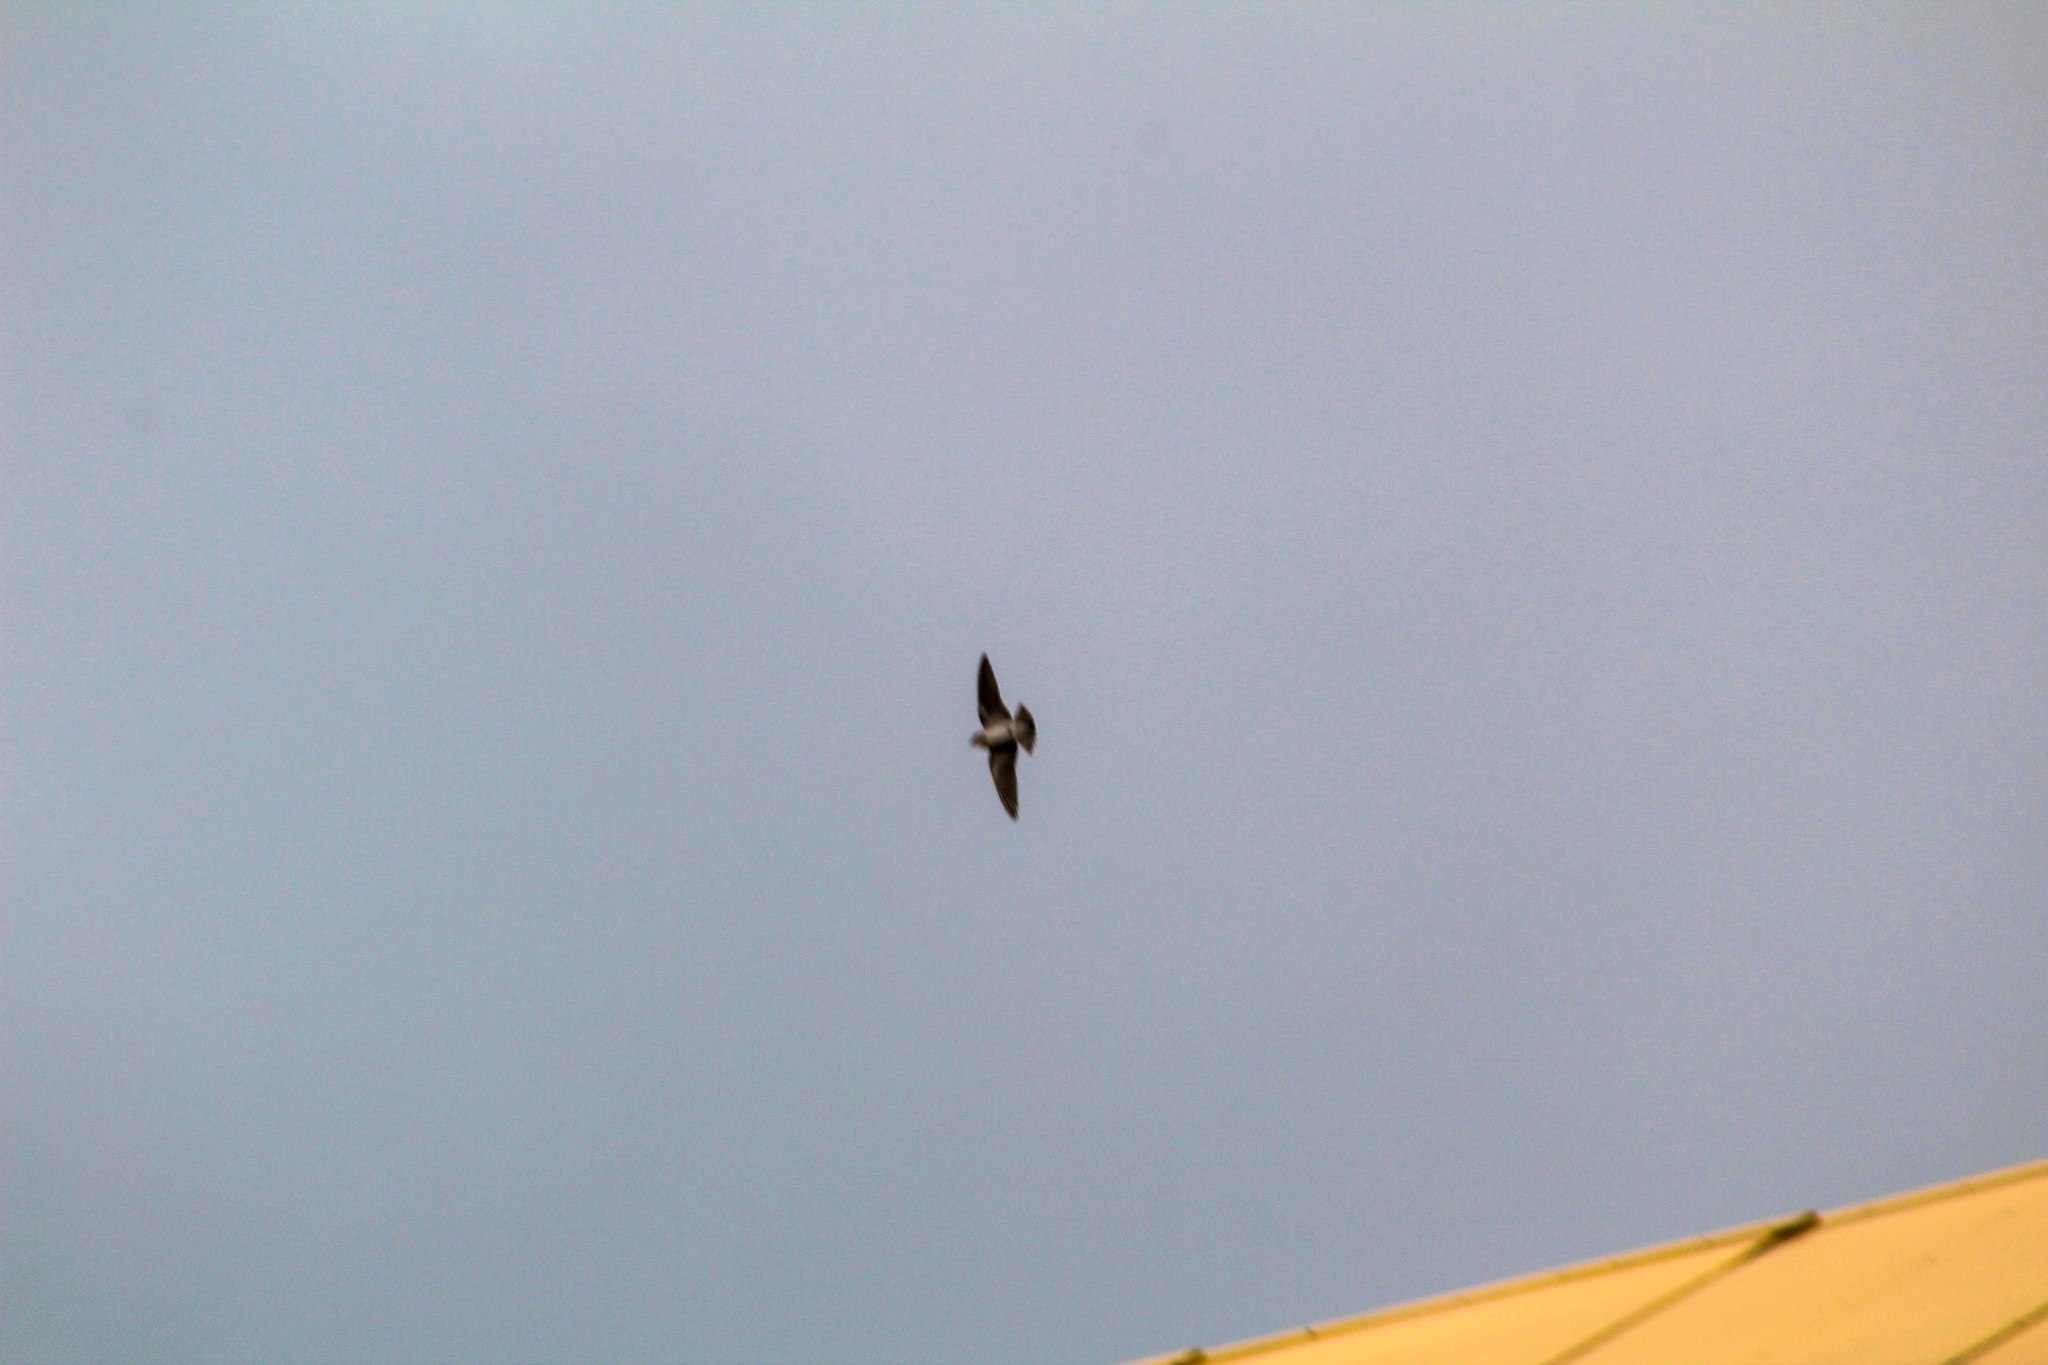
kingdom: Animalia
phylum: Chordata
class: Aves
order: Passeriformes
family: Hirundinidae
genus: Progne
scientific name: Progne chalybea
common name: Grey-breasted martin
